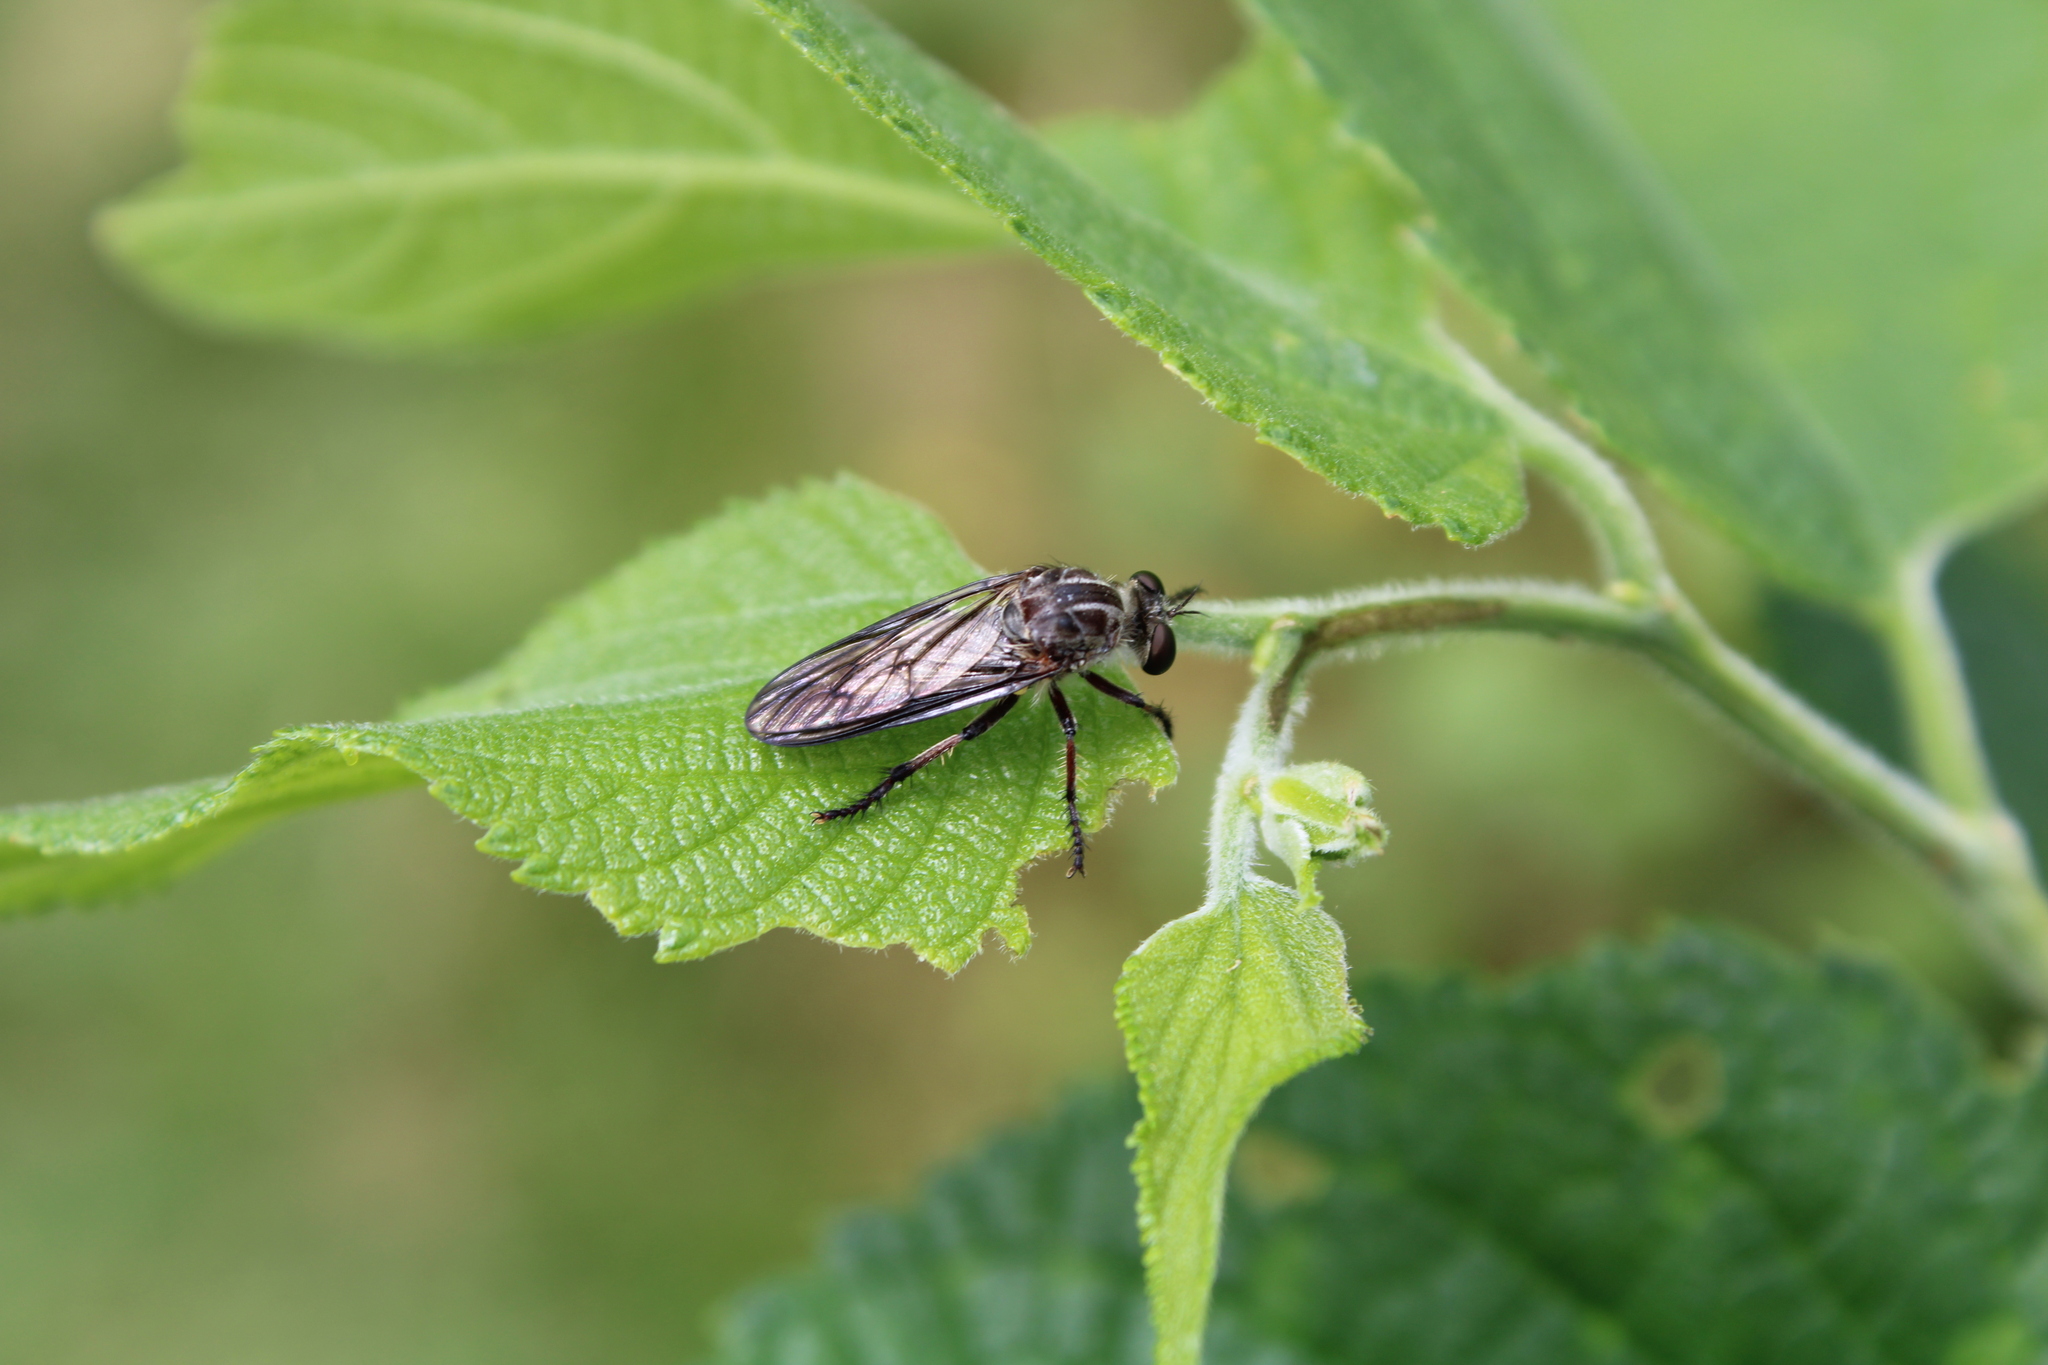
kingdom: Animalia
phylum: Arthropoda
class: Insecta
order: Diptera
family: Asilidae
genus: Heteropogon
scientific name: Heteropogon macerinus
